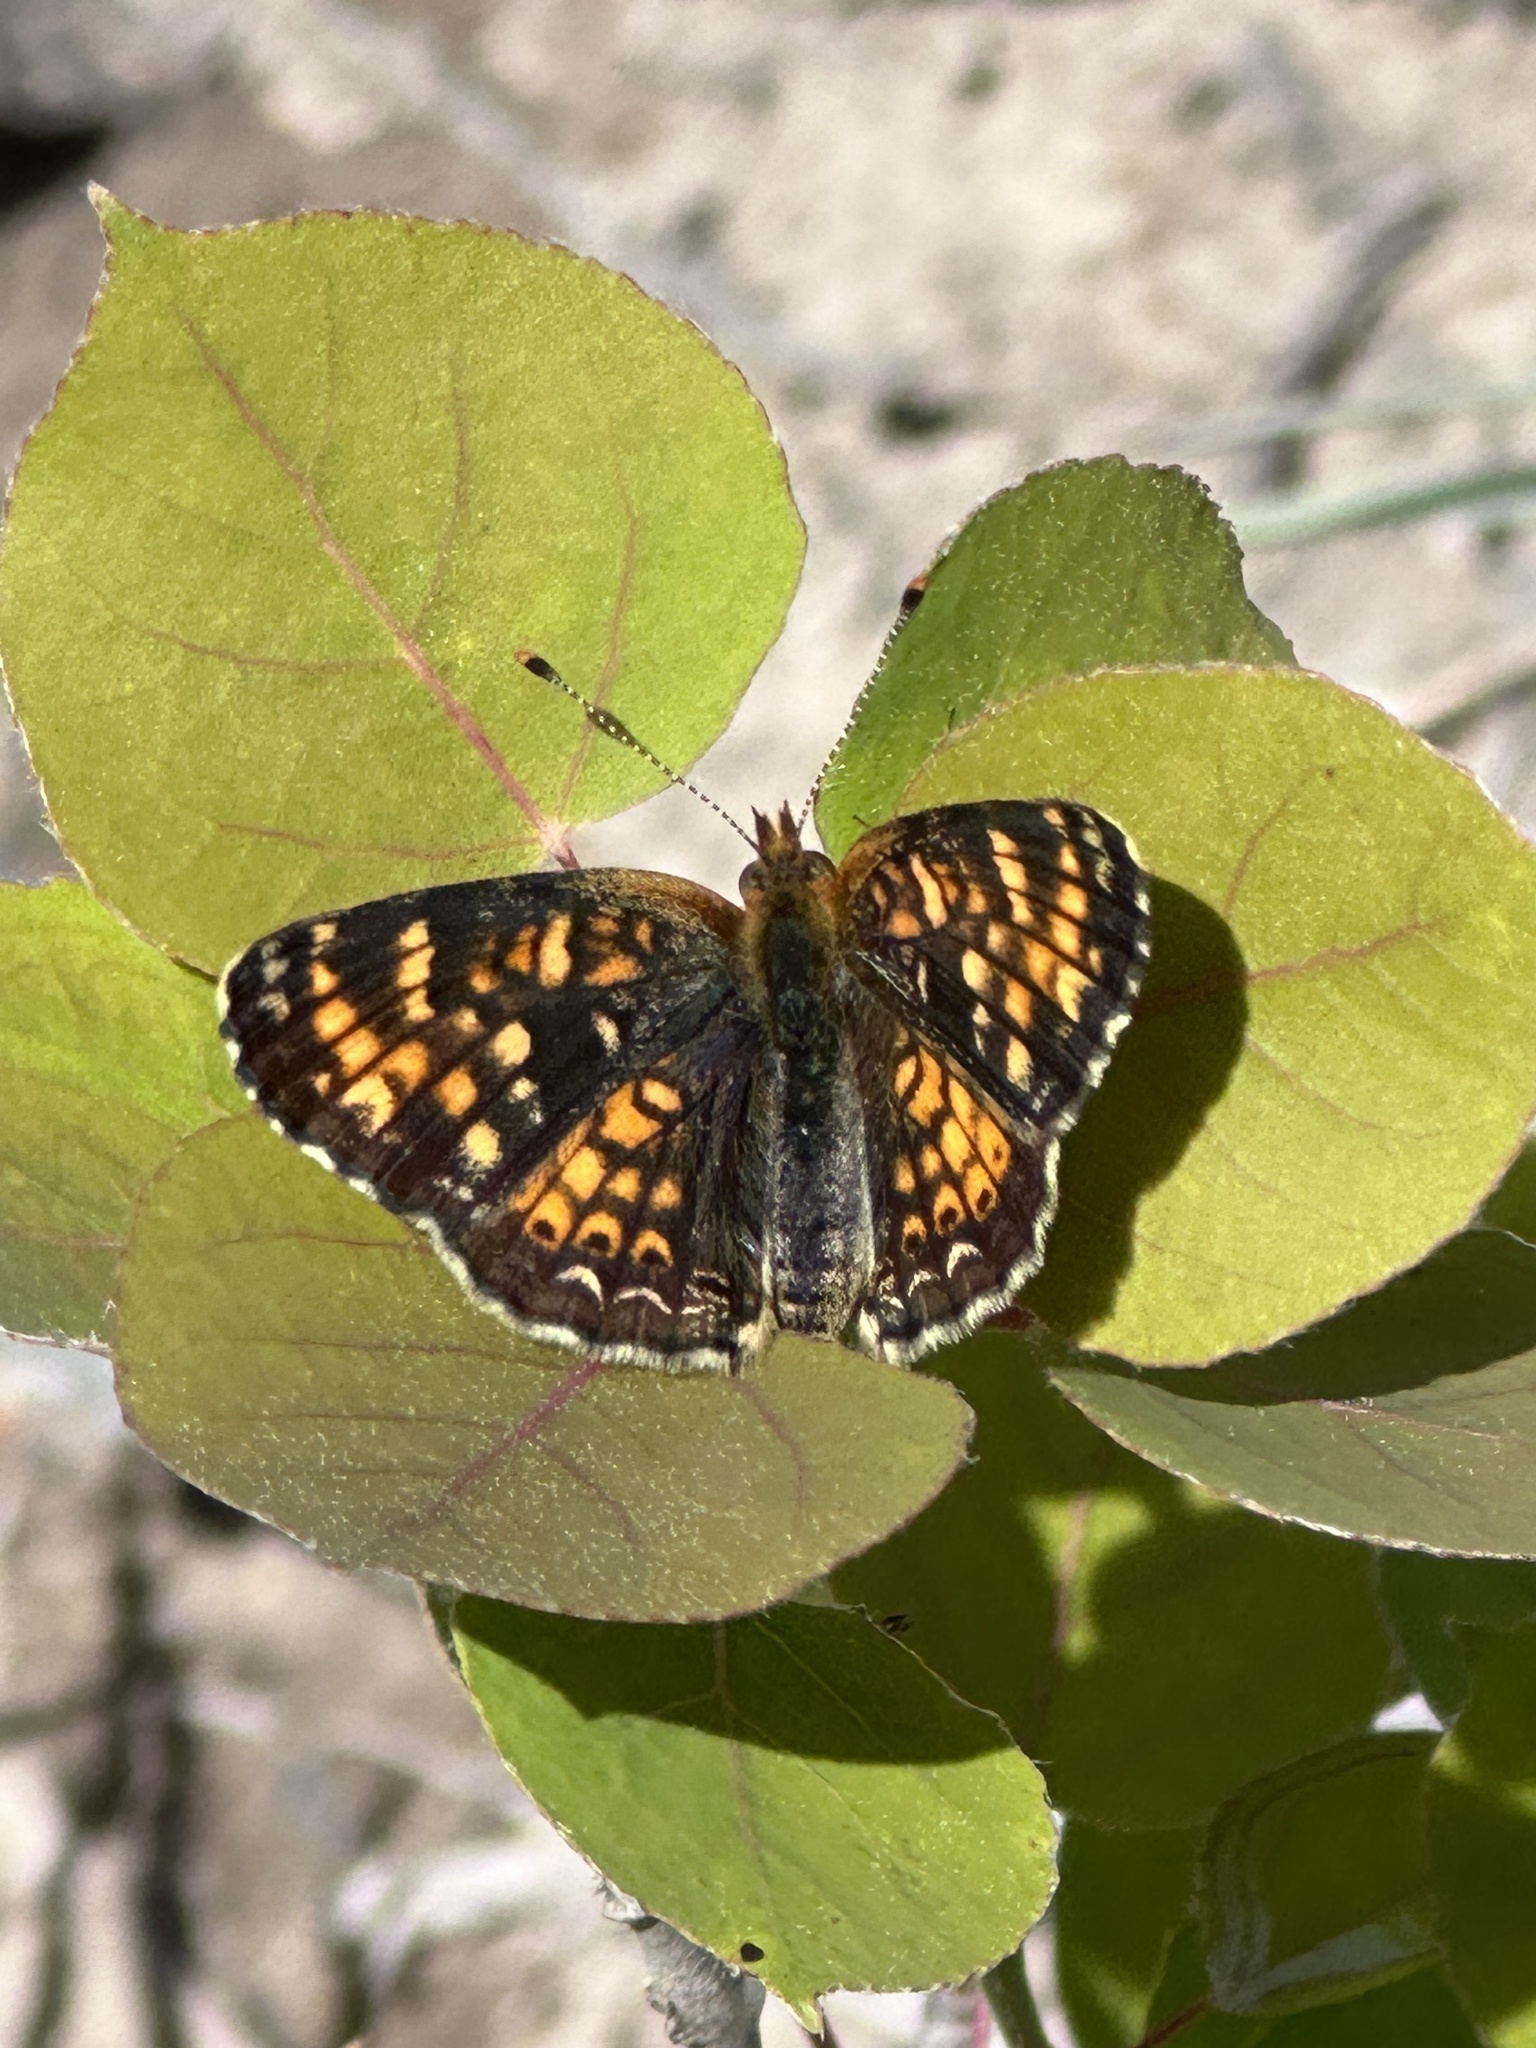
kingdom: Animalia
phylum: Arthropoda
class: Insecta
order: Lepidoptera
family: Nymphalidae
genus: Phyciodes
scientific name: Phyciodes tharos
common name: Pearl crescent
